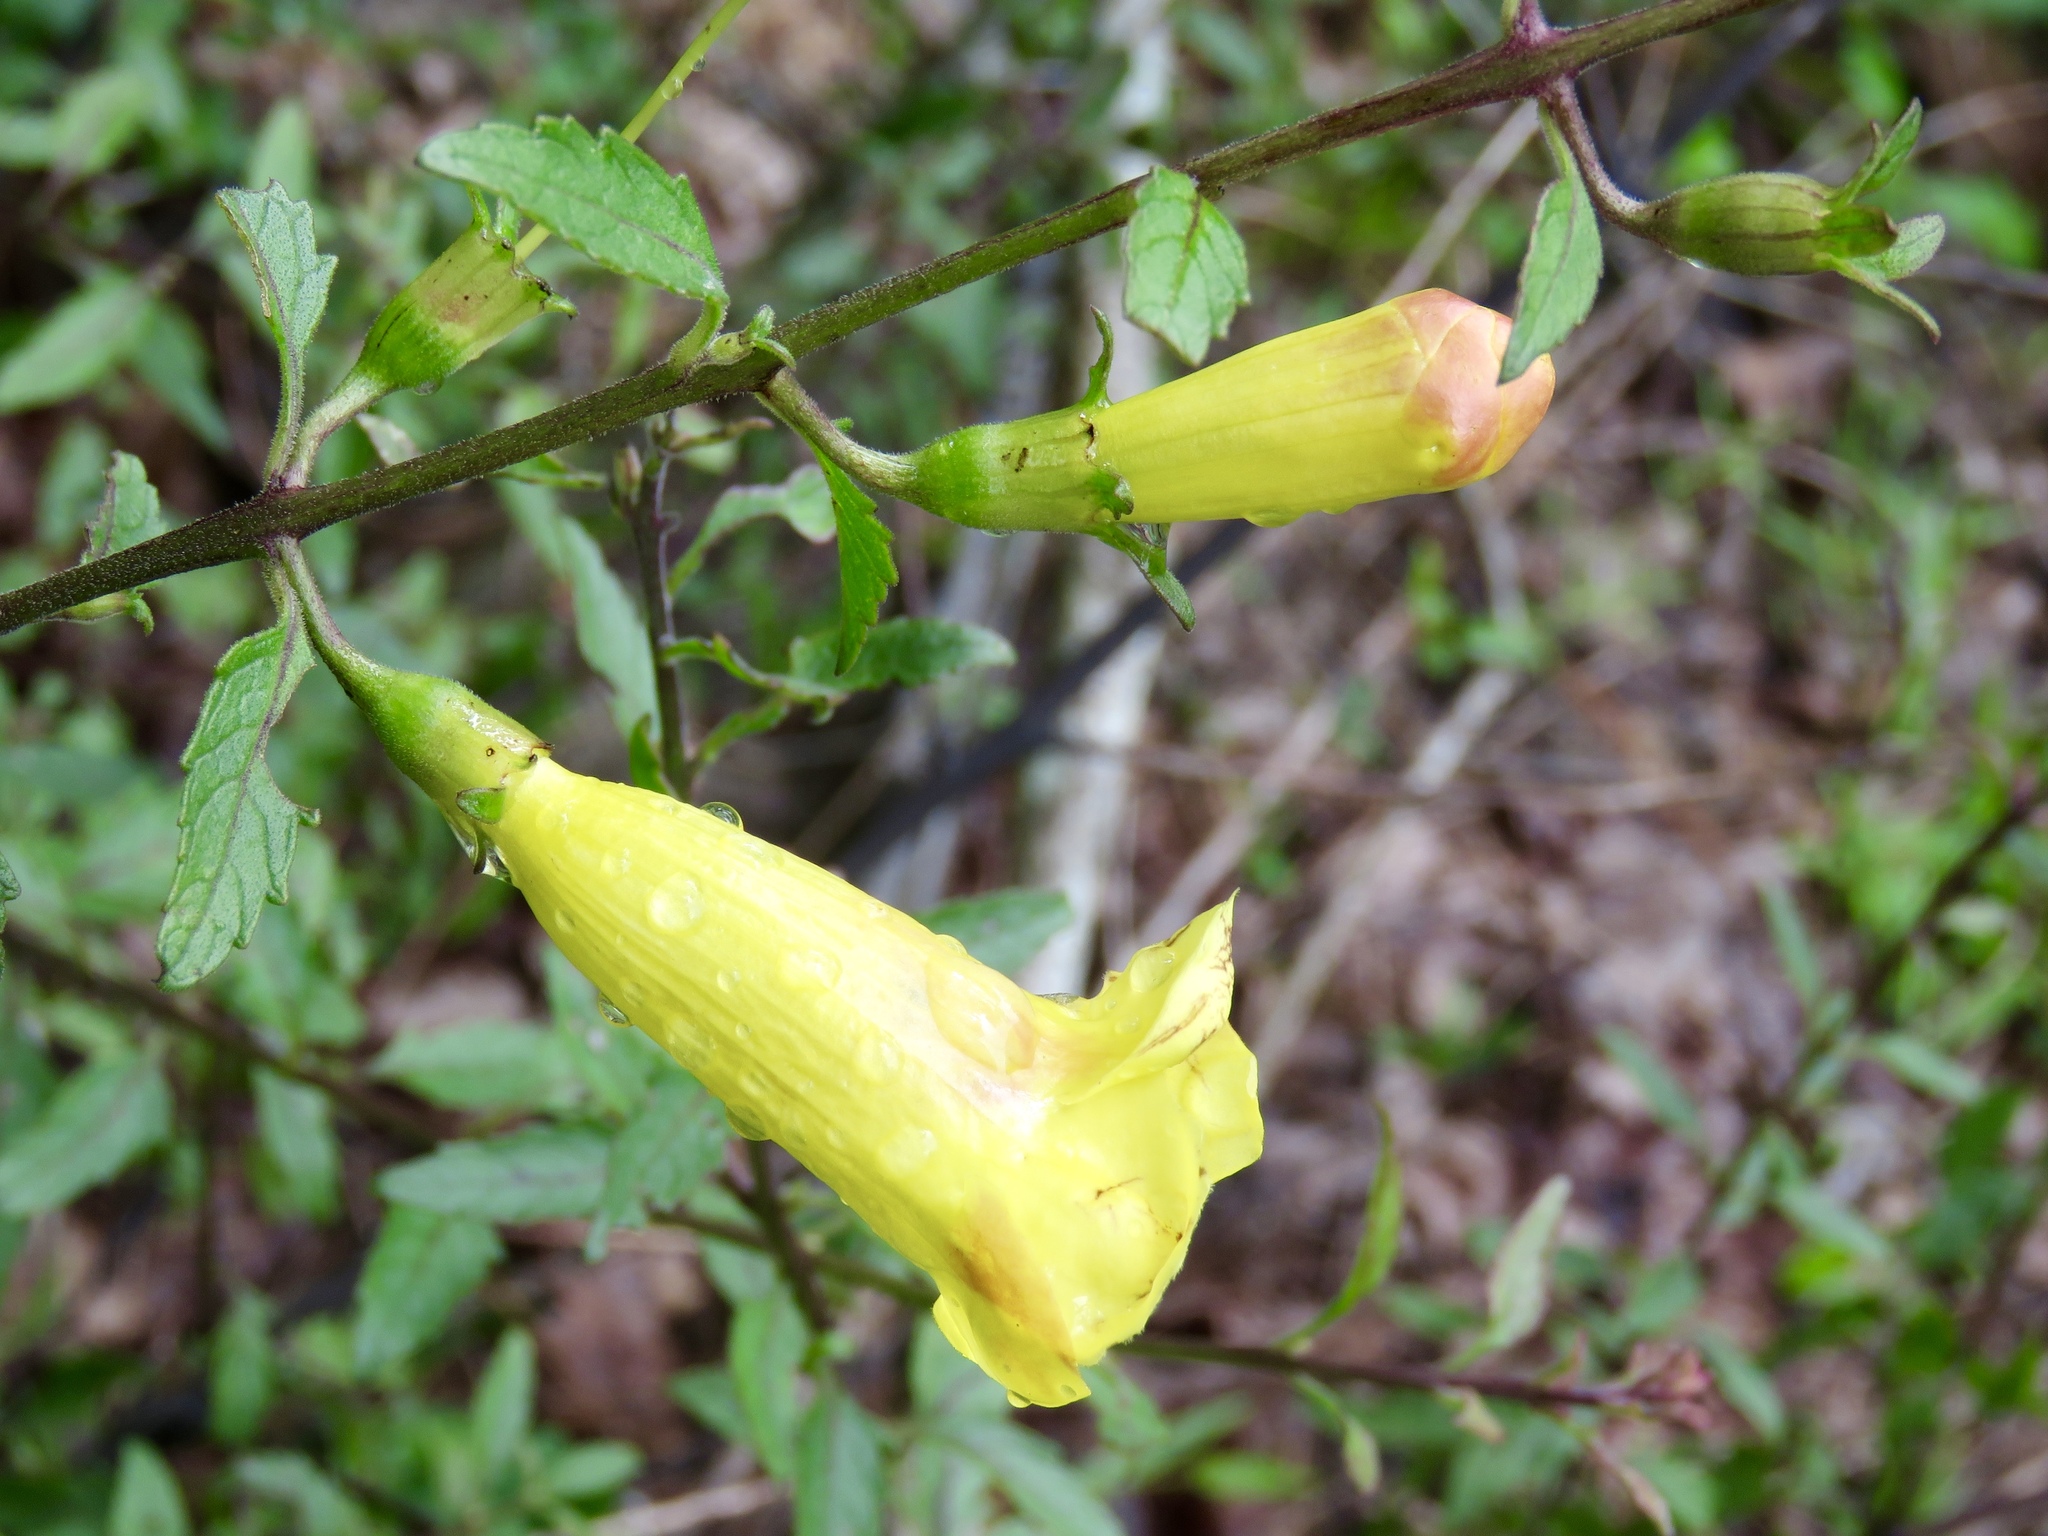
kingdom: Plantae
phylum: Tracheophyta
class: Magnoliopsida
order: Lamiales
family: Orobanchaceae
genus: Aureolaria
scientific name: Aureolaria grandiflora
